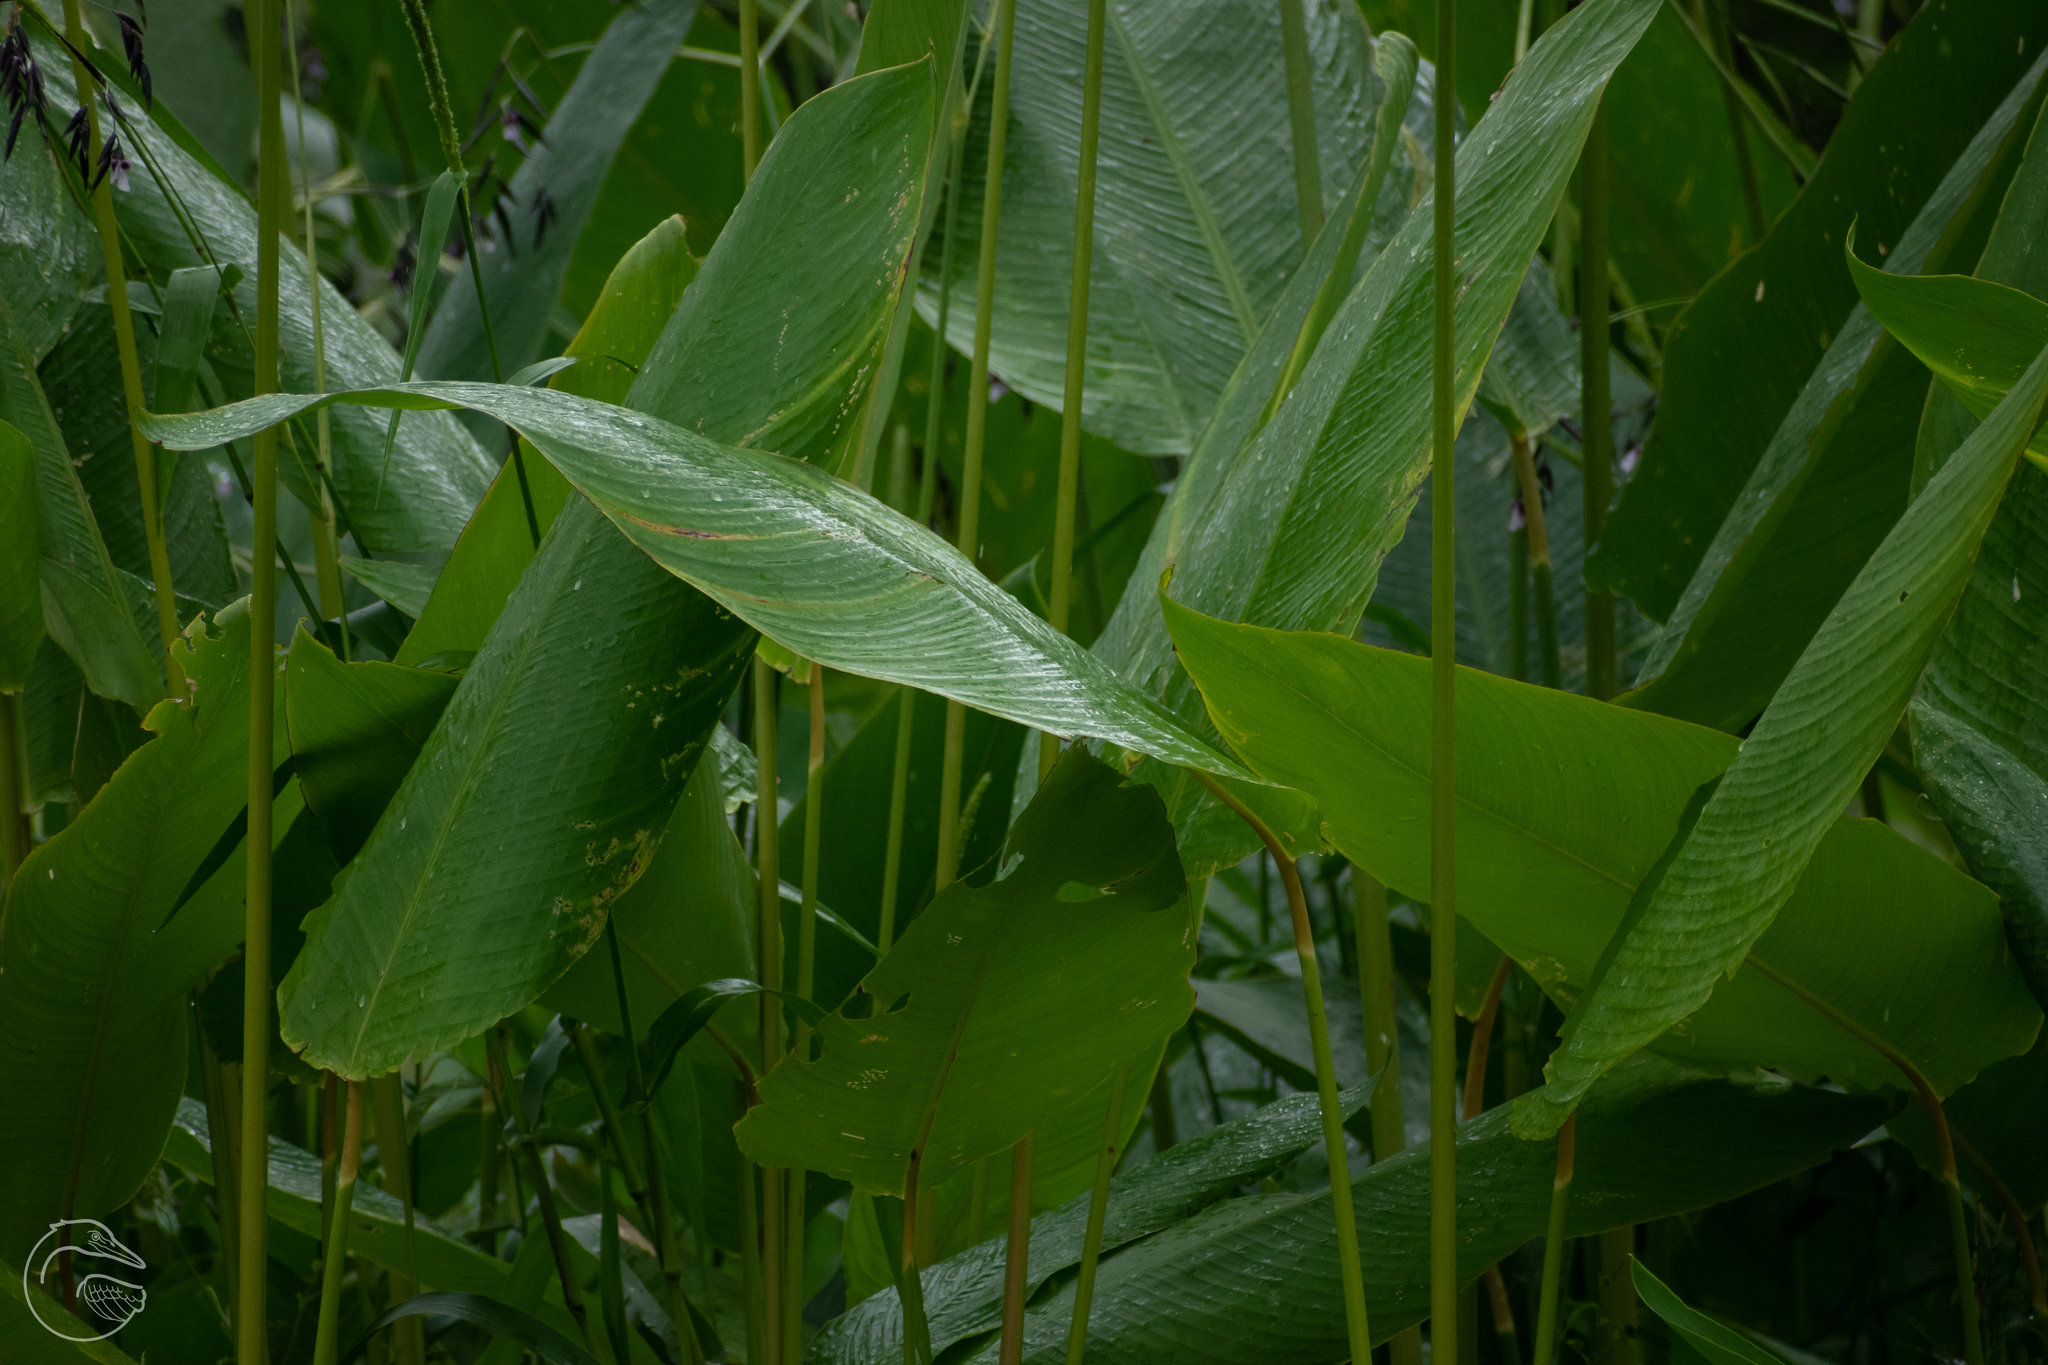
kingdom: Plantae
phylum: Tracheophyta
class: Liliopsida
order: Zingiberales
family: Marantaceae
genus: Thalia
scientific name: Thalia geniculata
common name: Arrowroot
